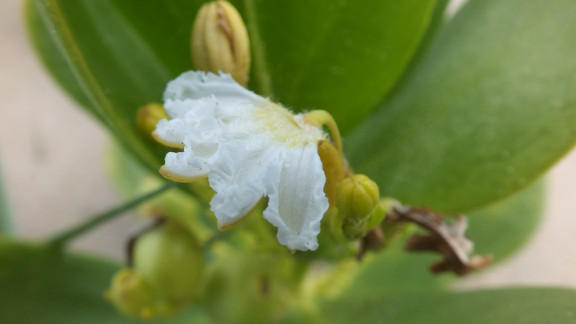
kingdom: Plantae
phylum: Tracheophyta
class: Magnoliopsida
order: Asterales
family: Goodeniaceae
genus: Scaevola
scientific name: Scaevola plumieri
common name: Gull feed
